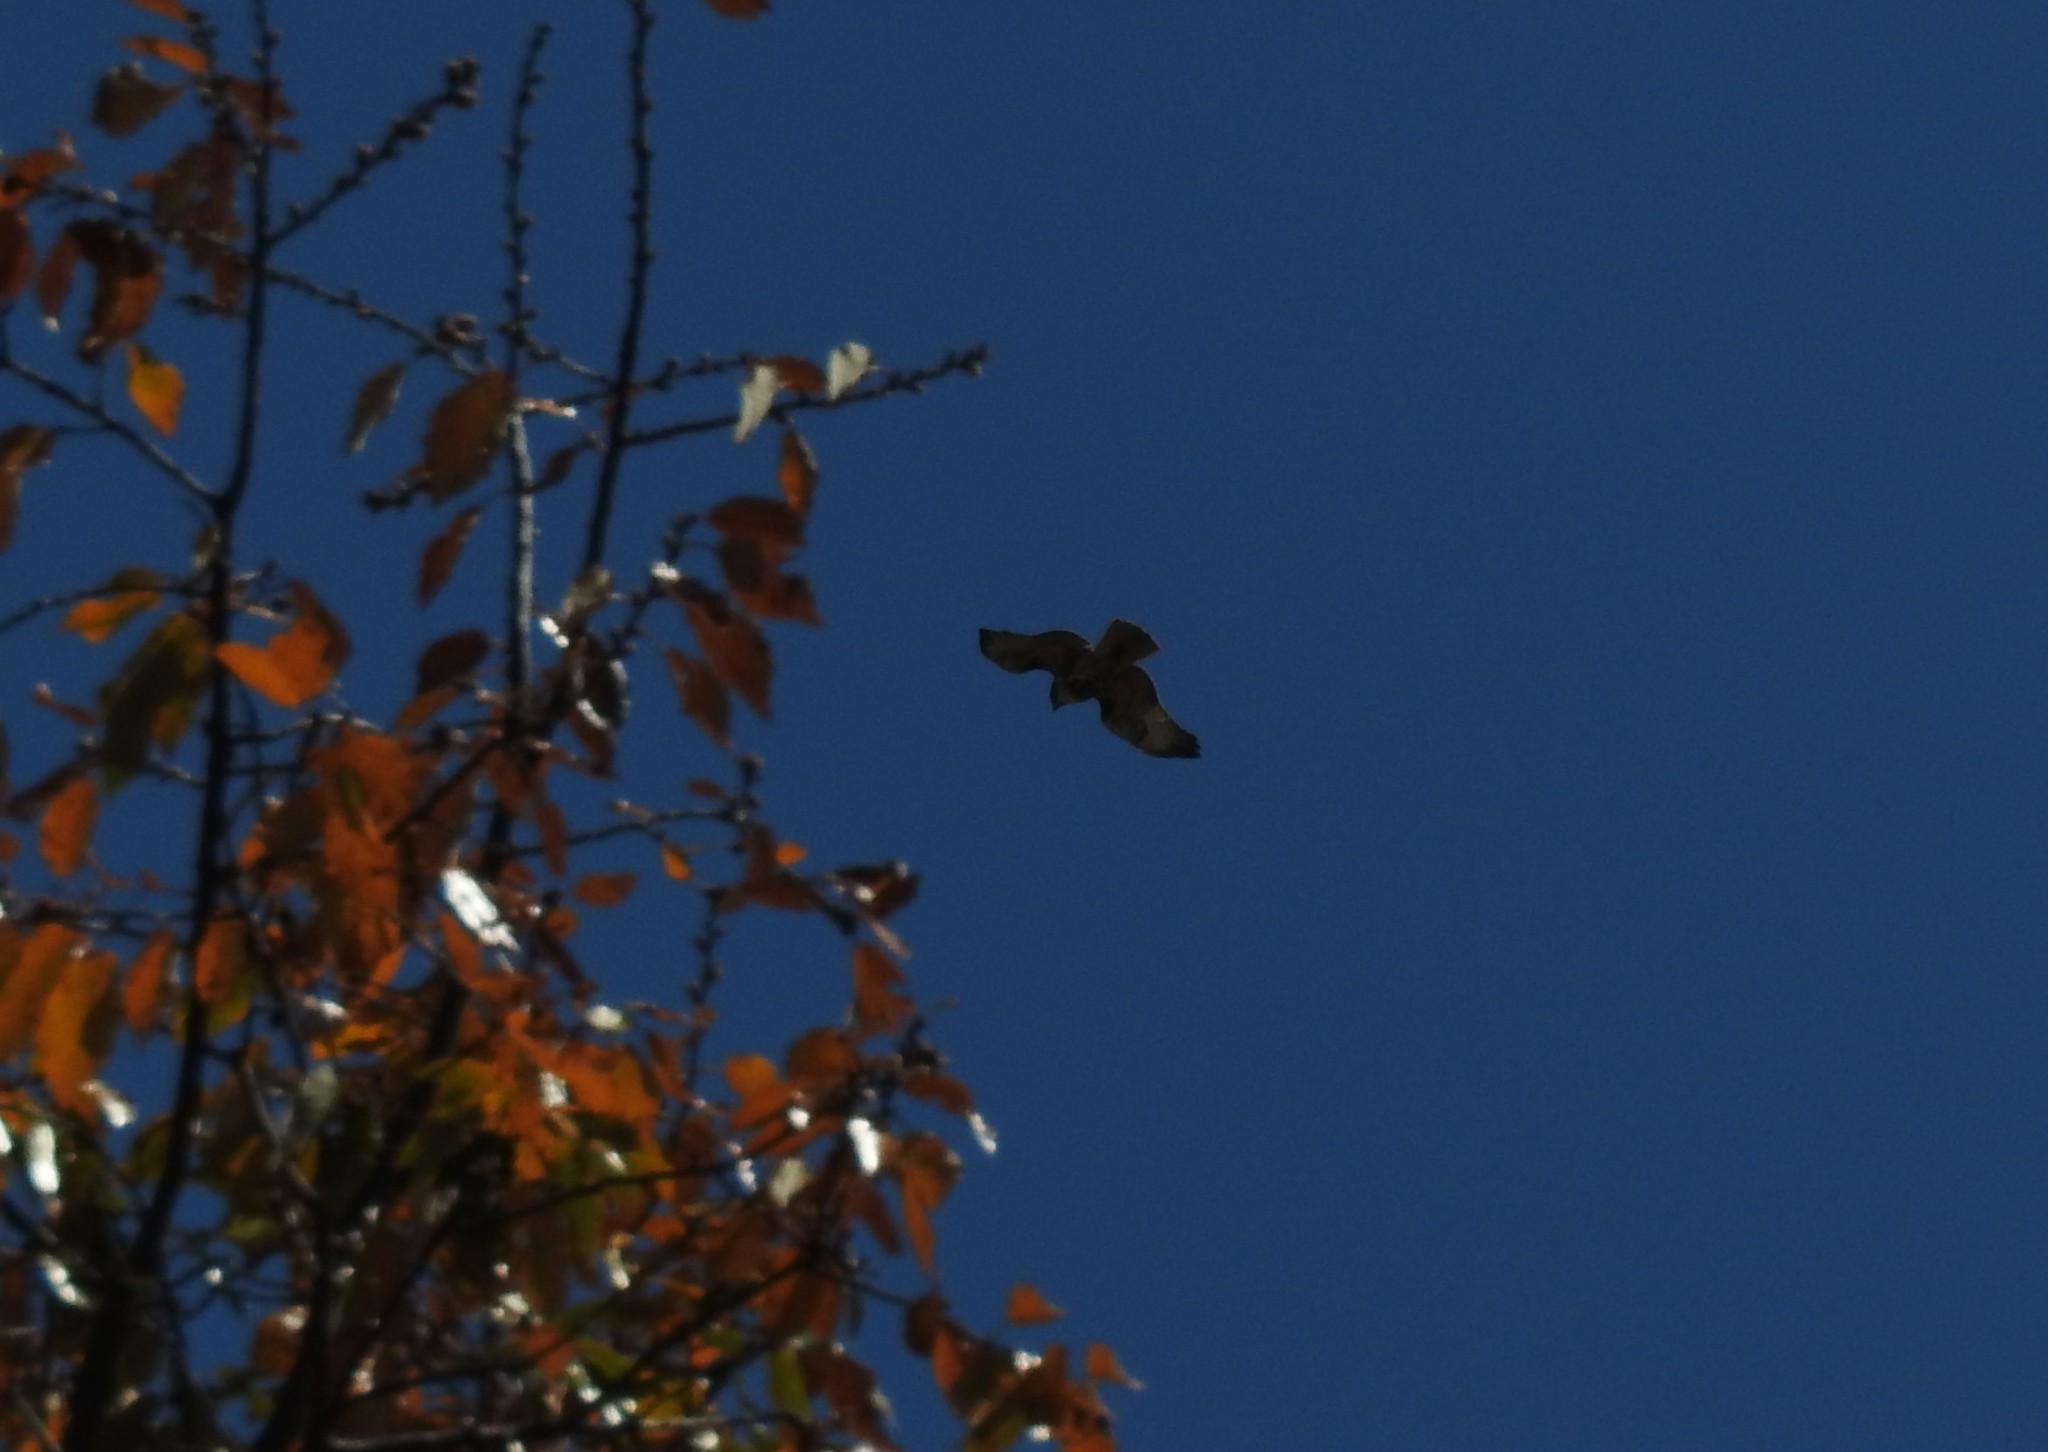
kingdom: Animalia
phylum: Chordata
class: Aves
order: Accipitriformes
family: Accipitridae
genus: Buteo
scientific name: Buteo jamaicensis
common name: Red-tailed hawk
